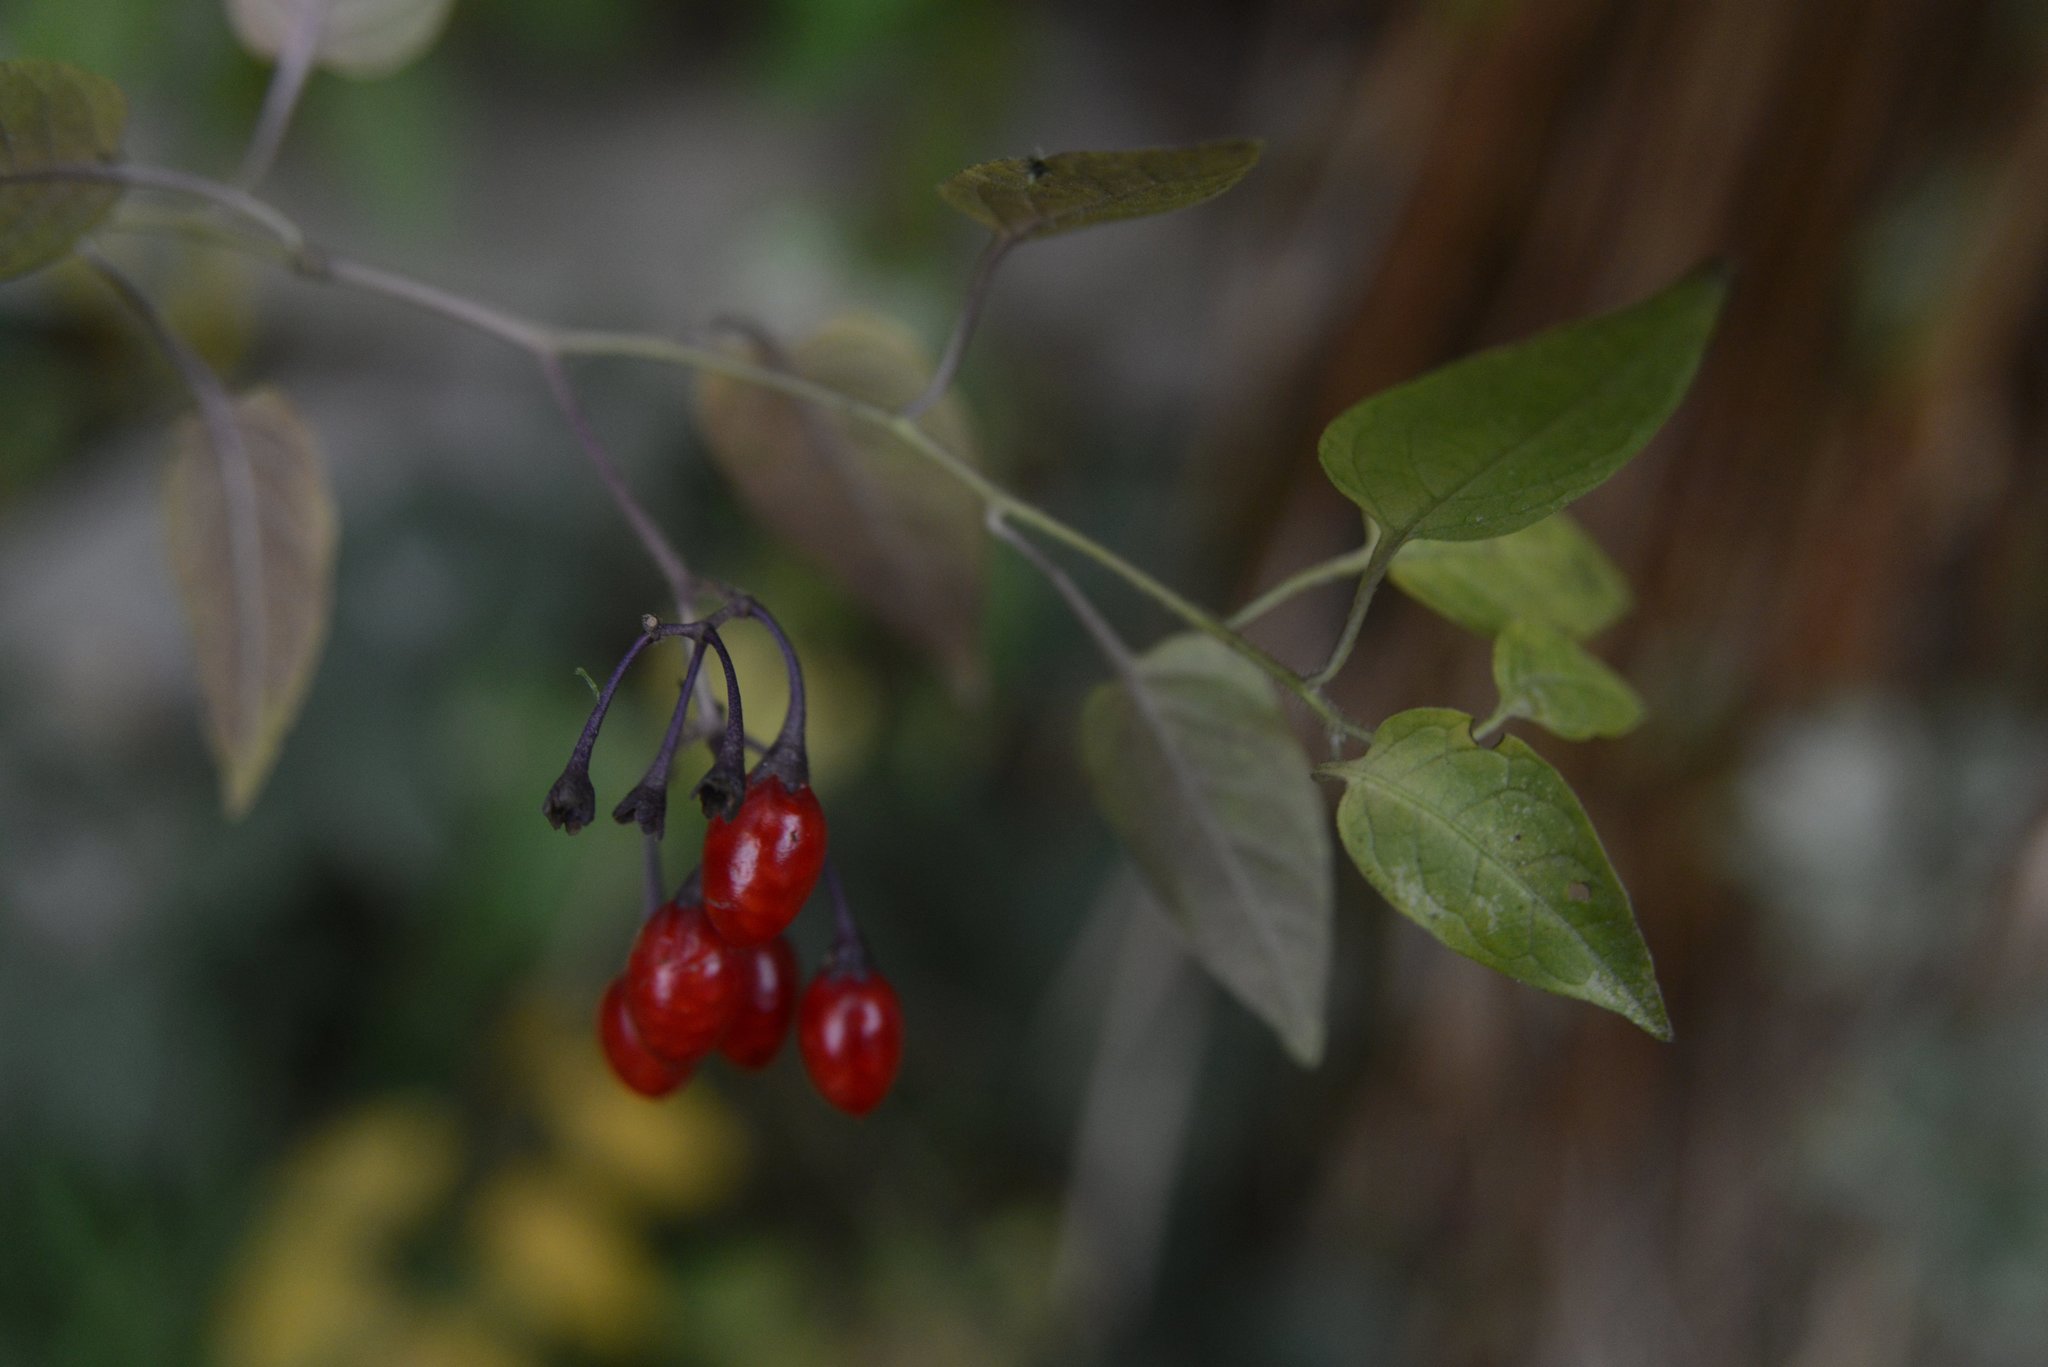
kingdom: Plantae
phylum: Tracheophyta
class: Magnoliopsida
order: Solanales
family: Solanaceae
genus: Solanum
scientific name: Solanum dulcamara
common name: Climbing nightshade
